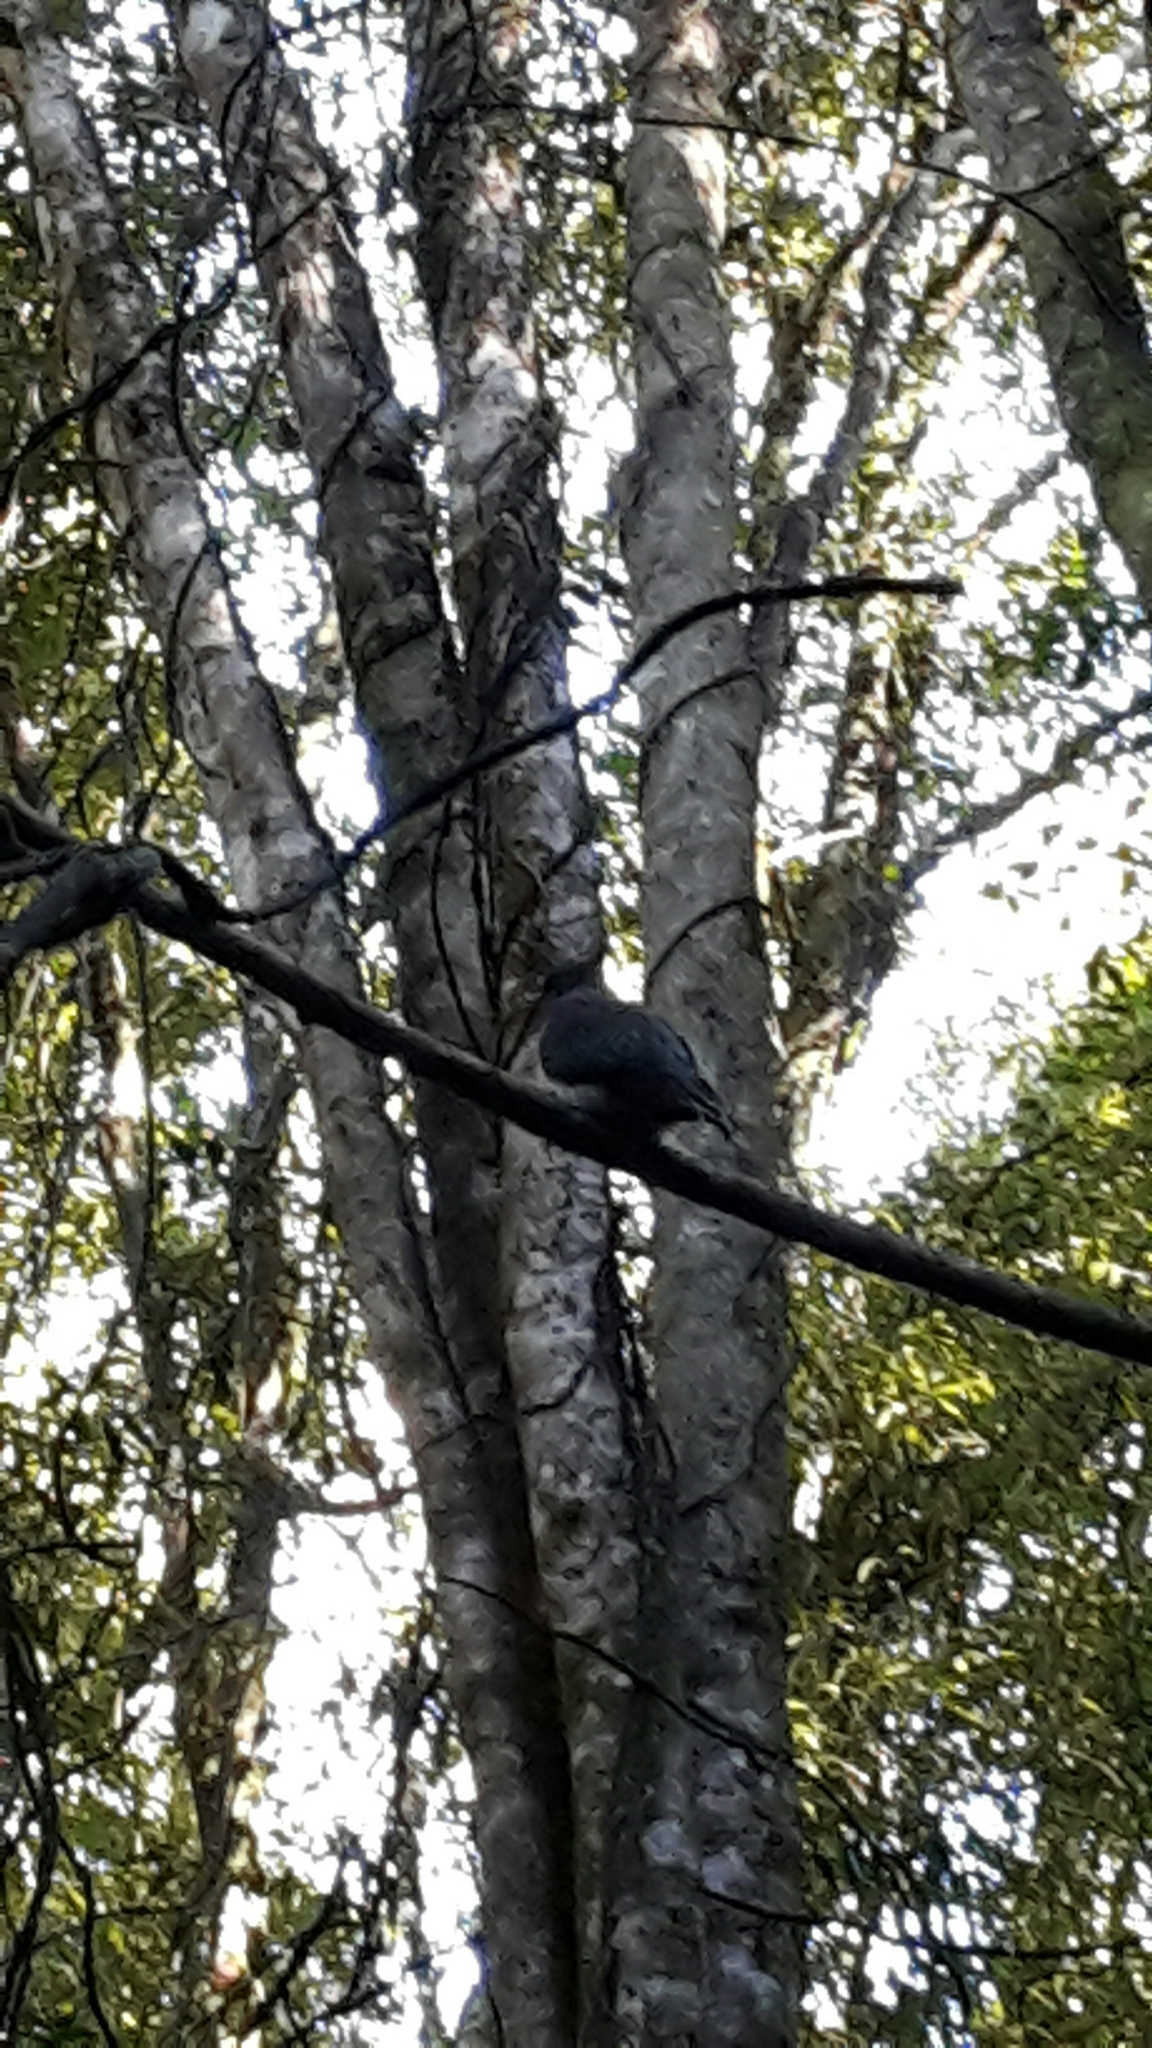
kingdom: Animalia
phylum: Chordata
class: Aves
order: Columbiformes
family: Columbidae
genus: Hemiphaga
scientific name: Hemiphaga novaeseelandiae
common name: New zealand pigeon
